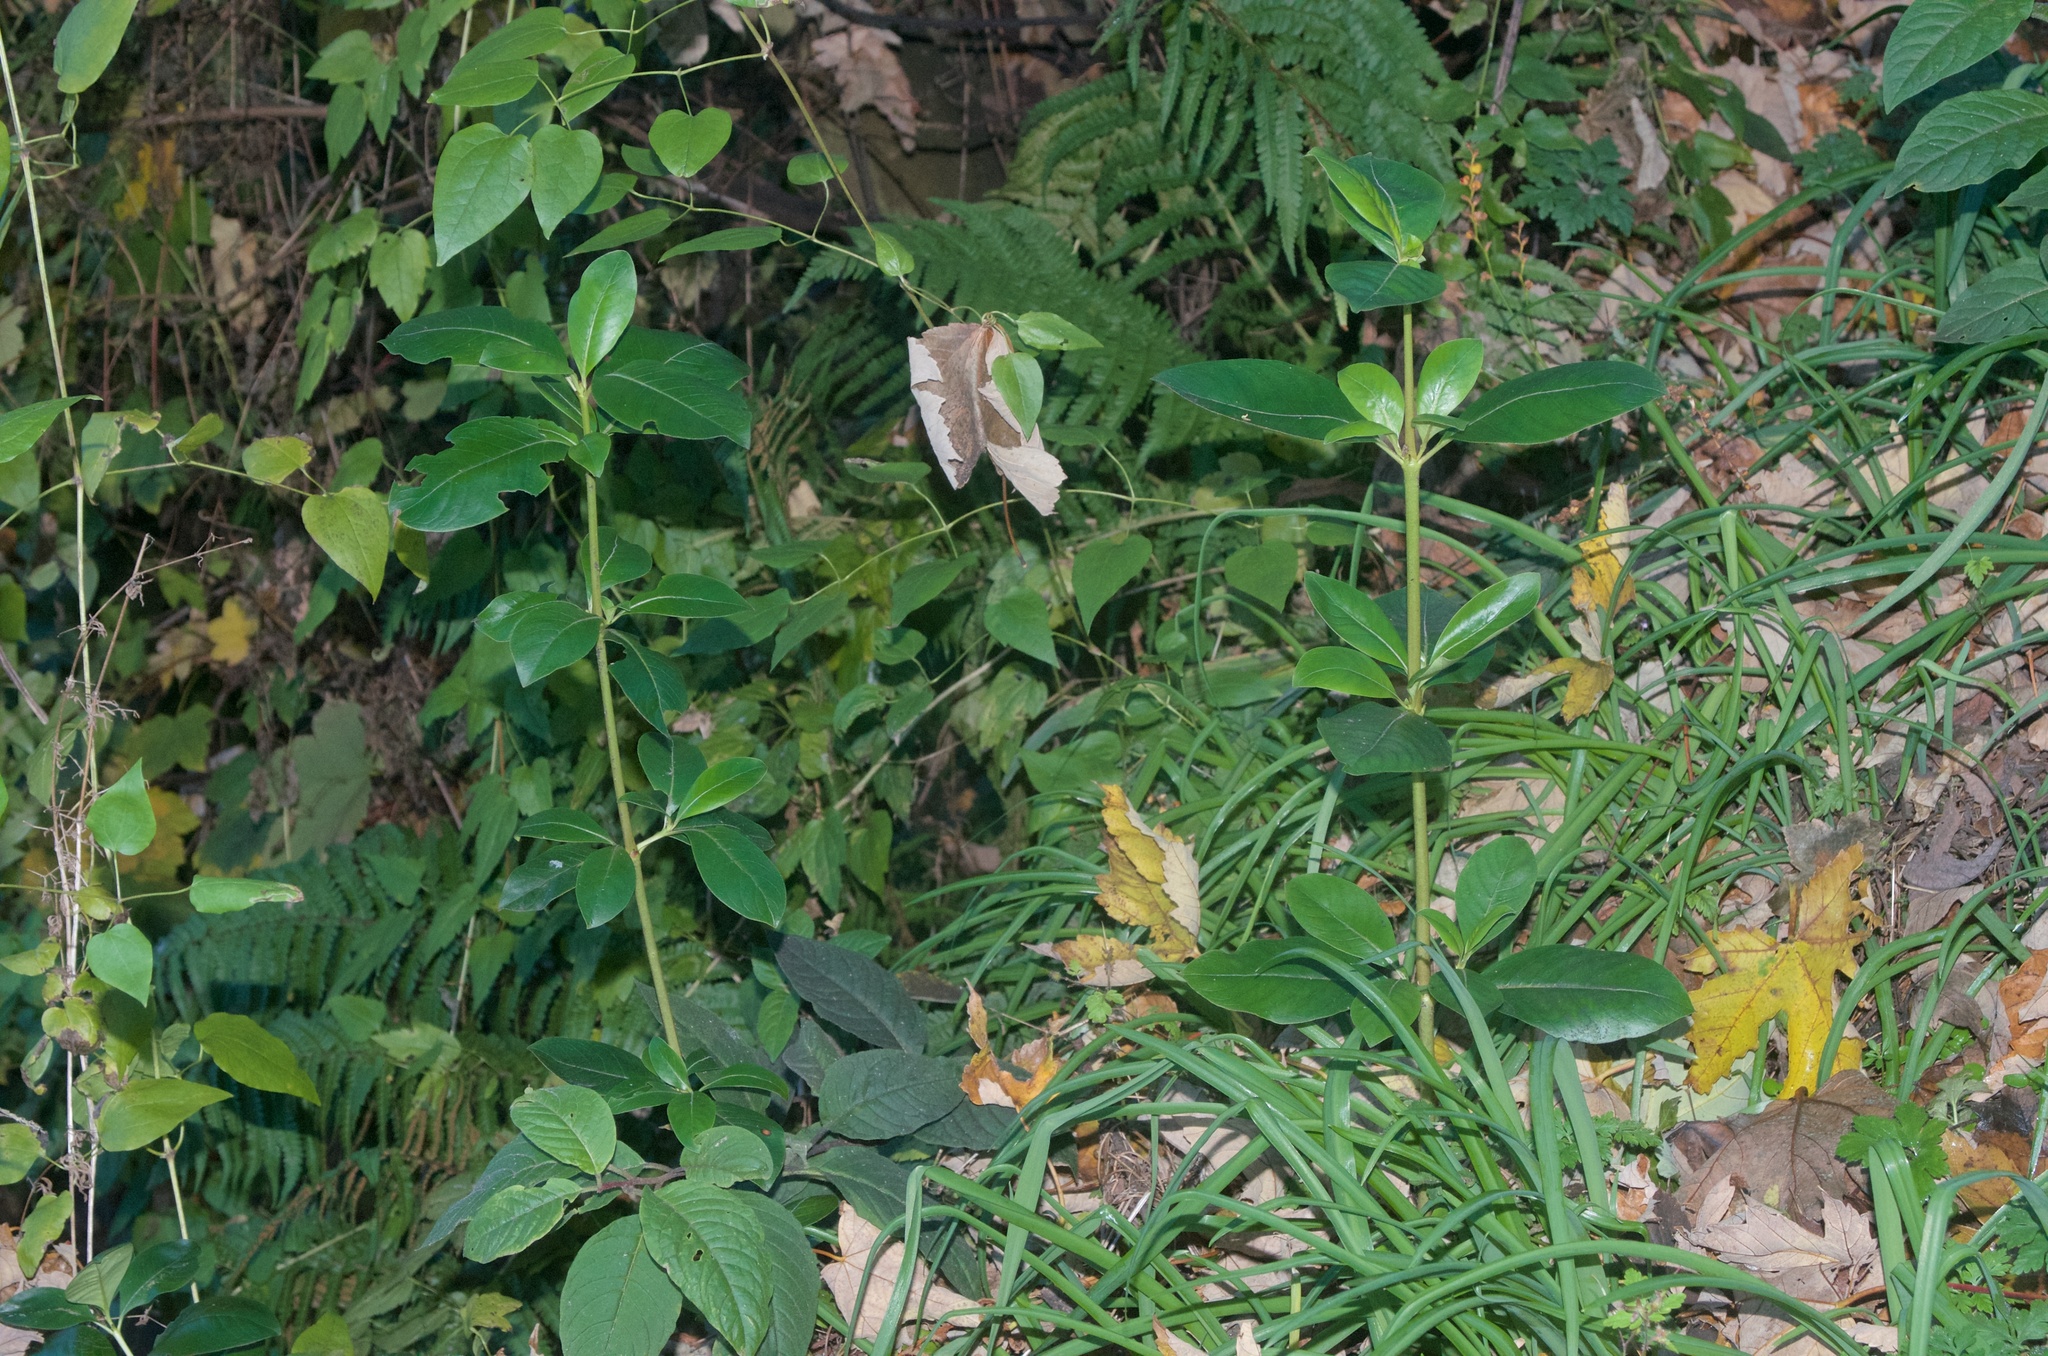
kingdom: Plantae
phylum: Tracheophyta
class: Magnoliopsida
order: Gentianales
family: Rubiaceae
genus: Coprosma
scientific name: Coprosma robusta
